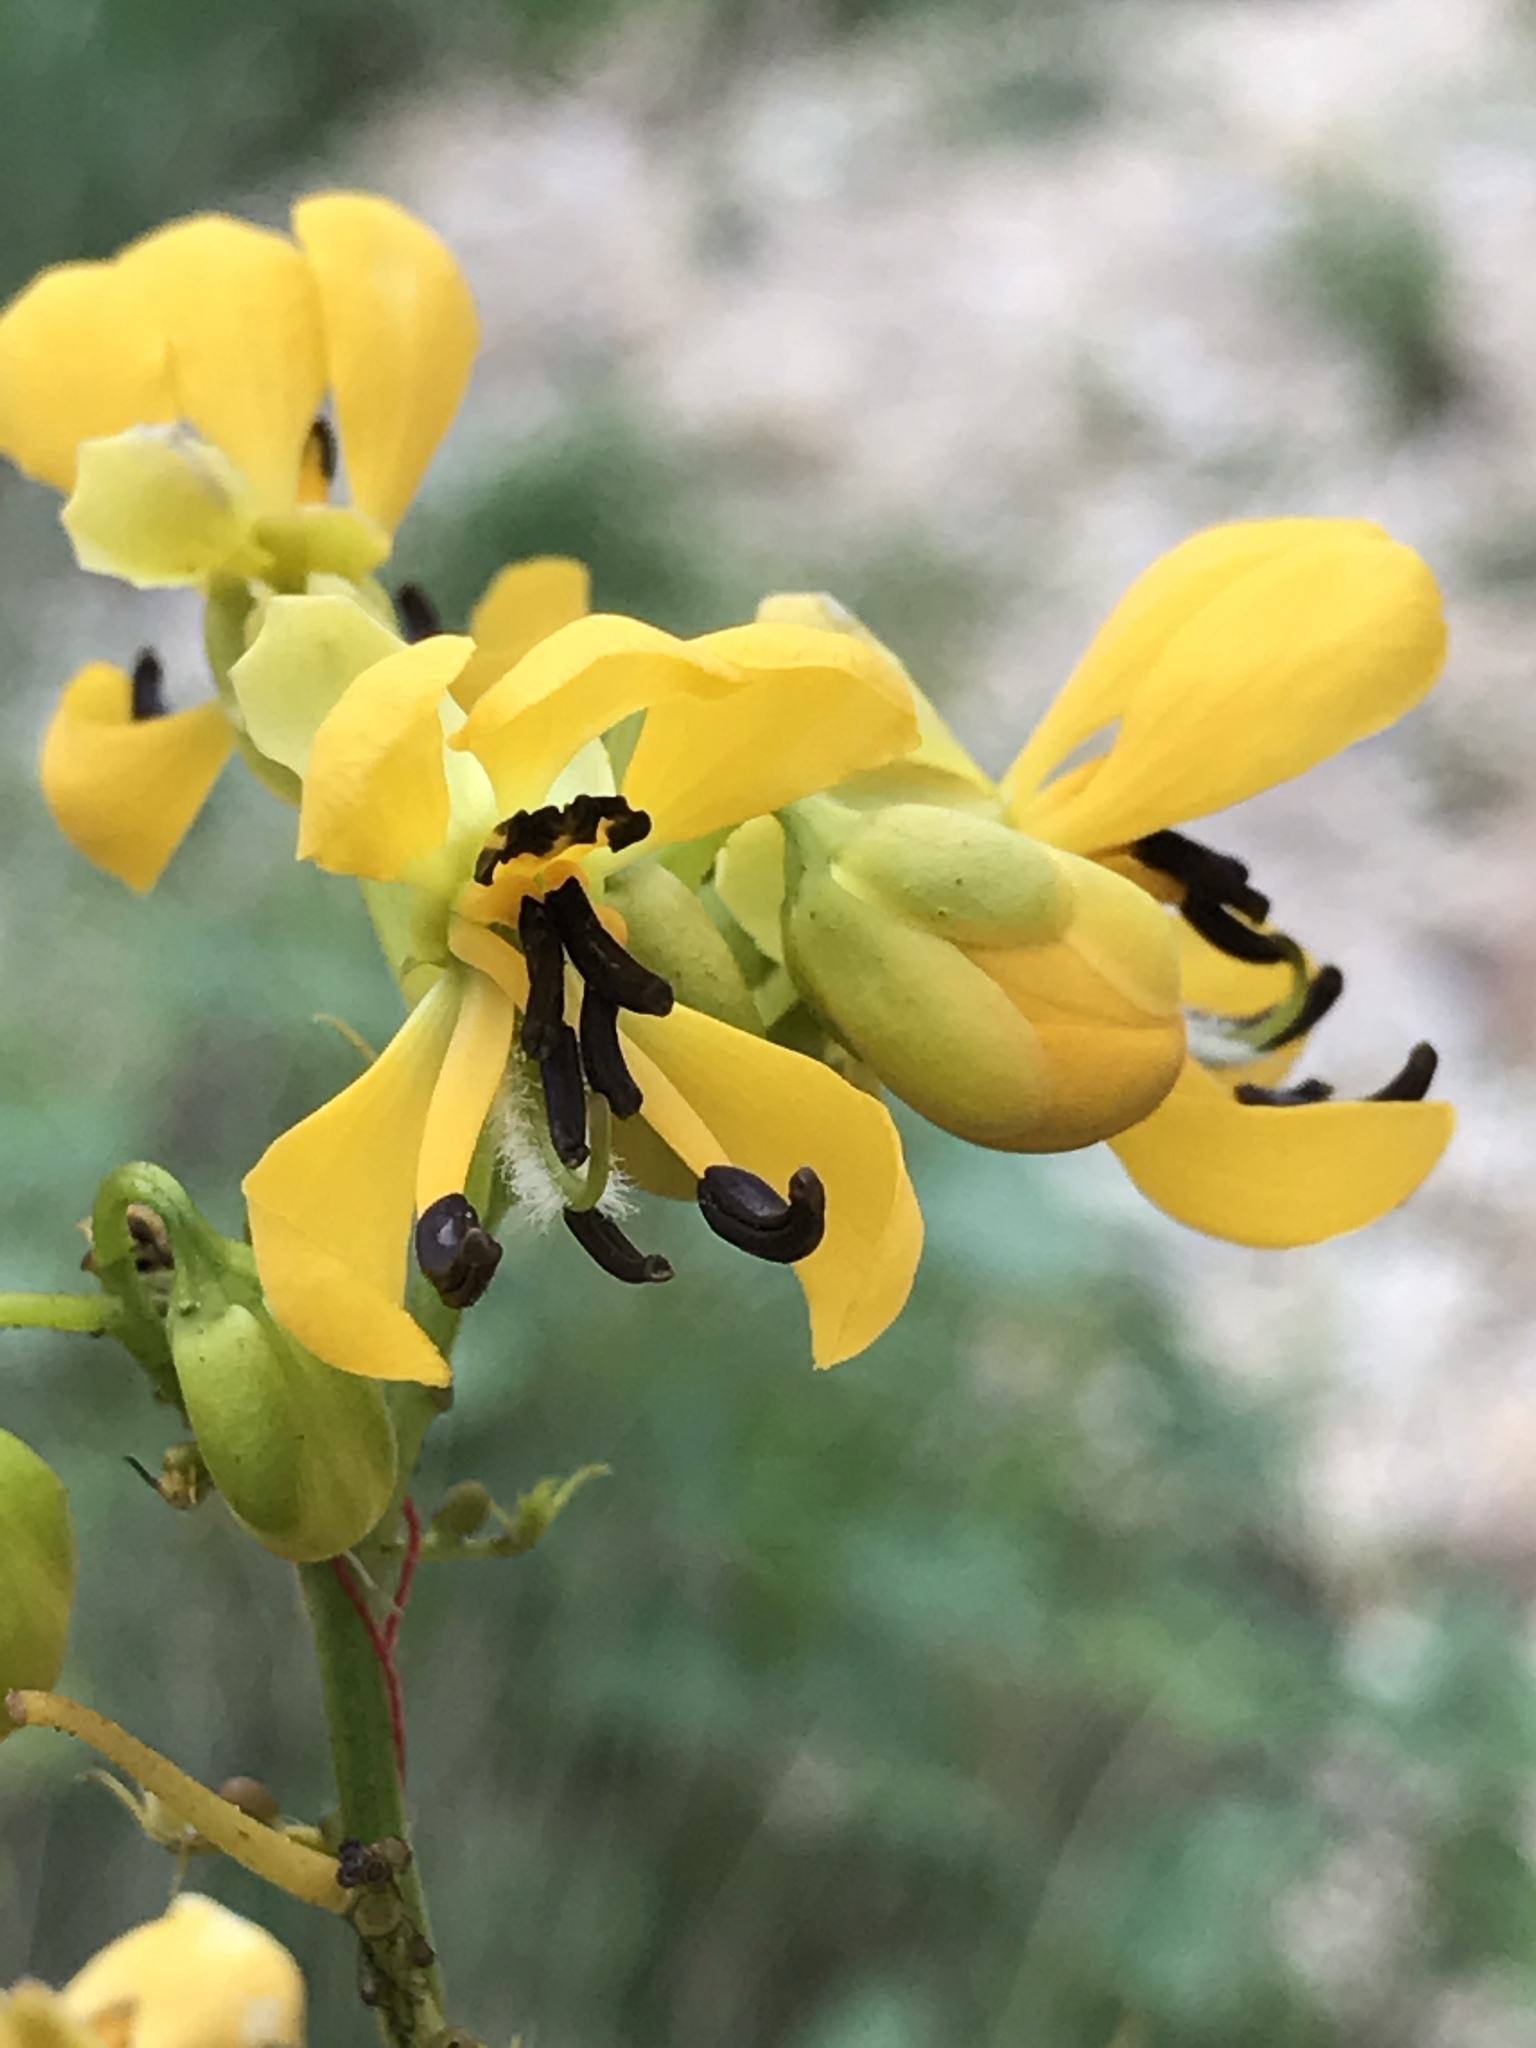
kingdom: Plantae
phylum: Tracheophyta
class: Magnoliopsida
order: Fabales
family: Fabaceae
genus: Senna
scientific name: Senna hebecarpa
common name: Wild senna
